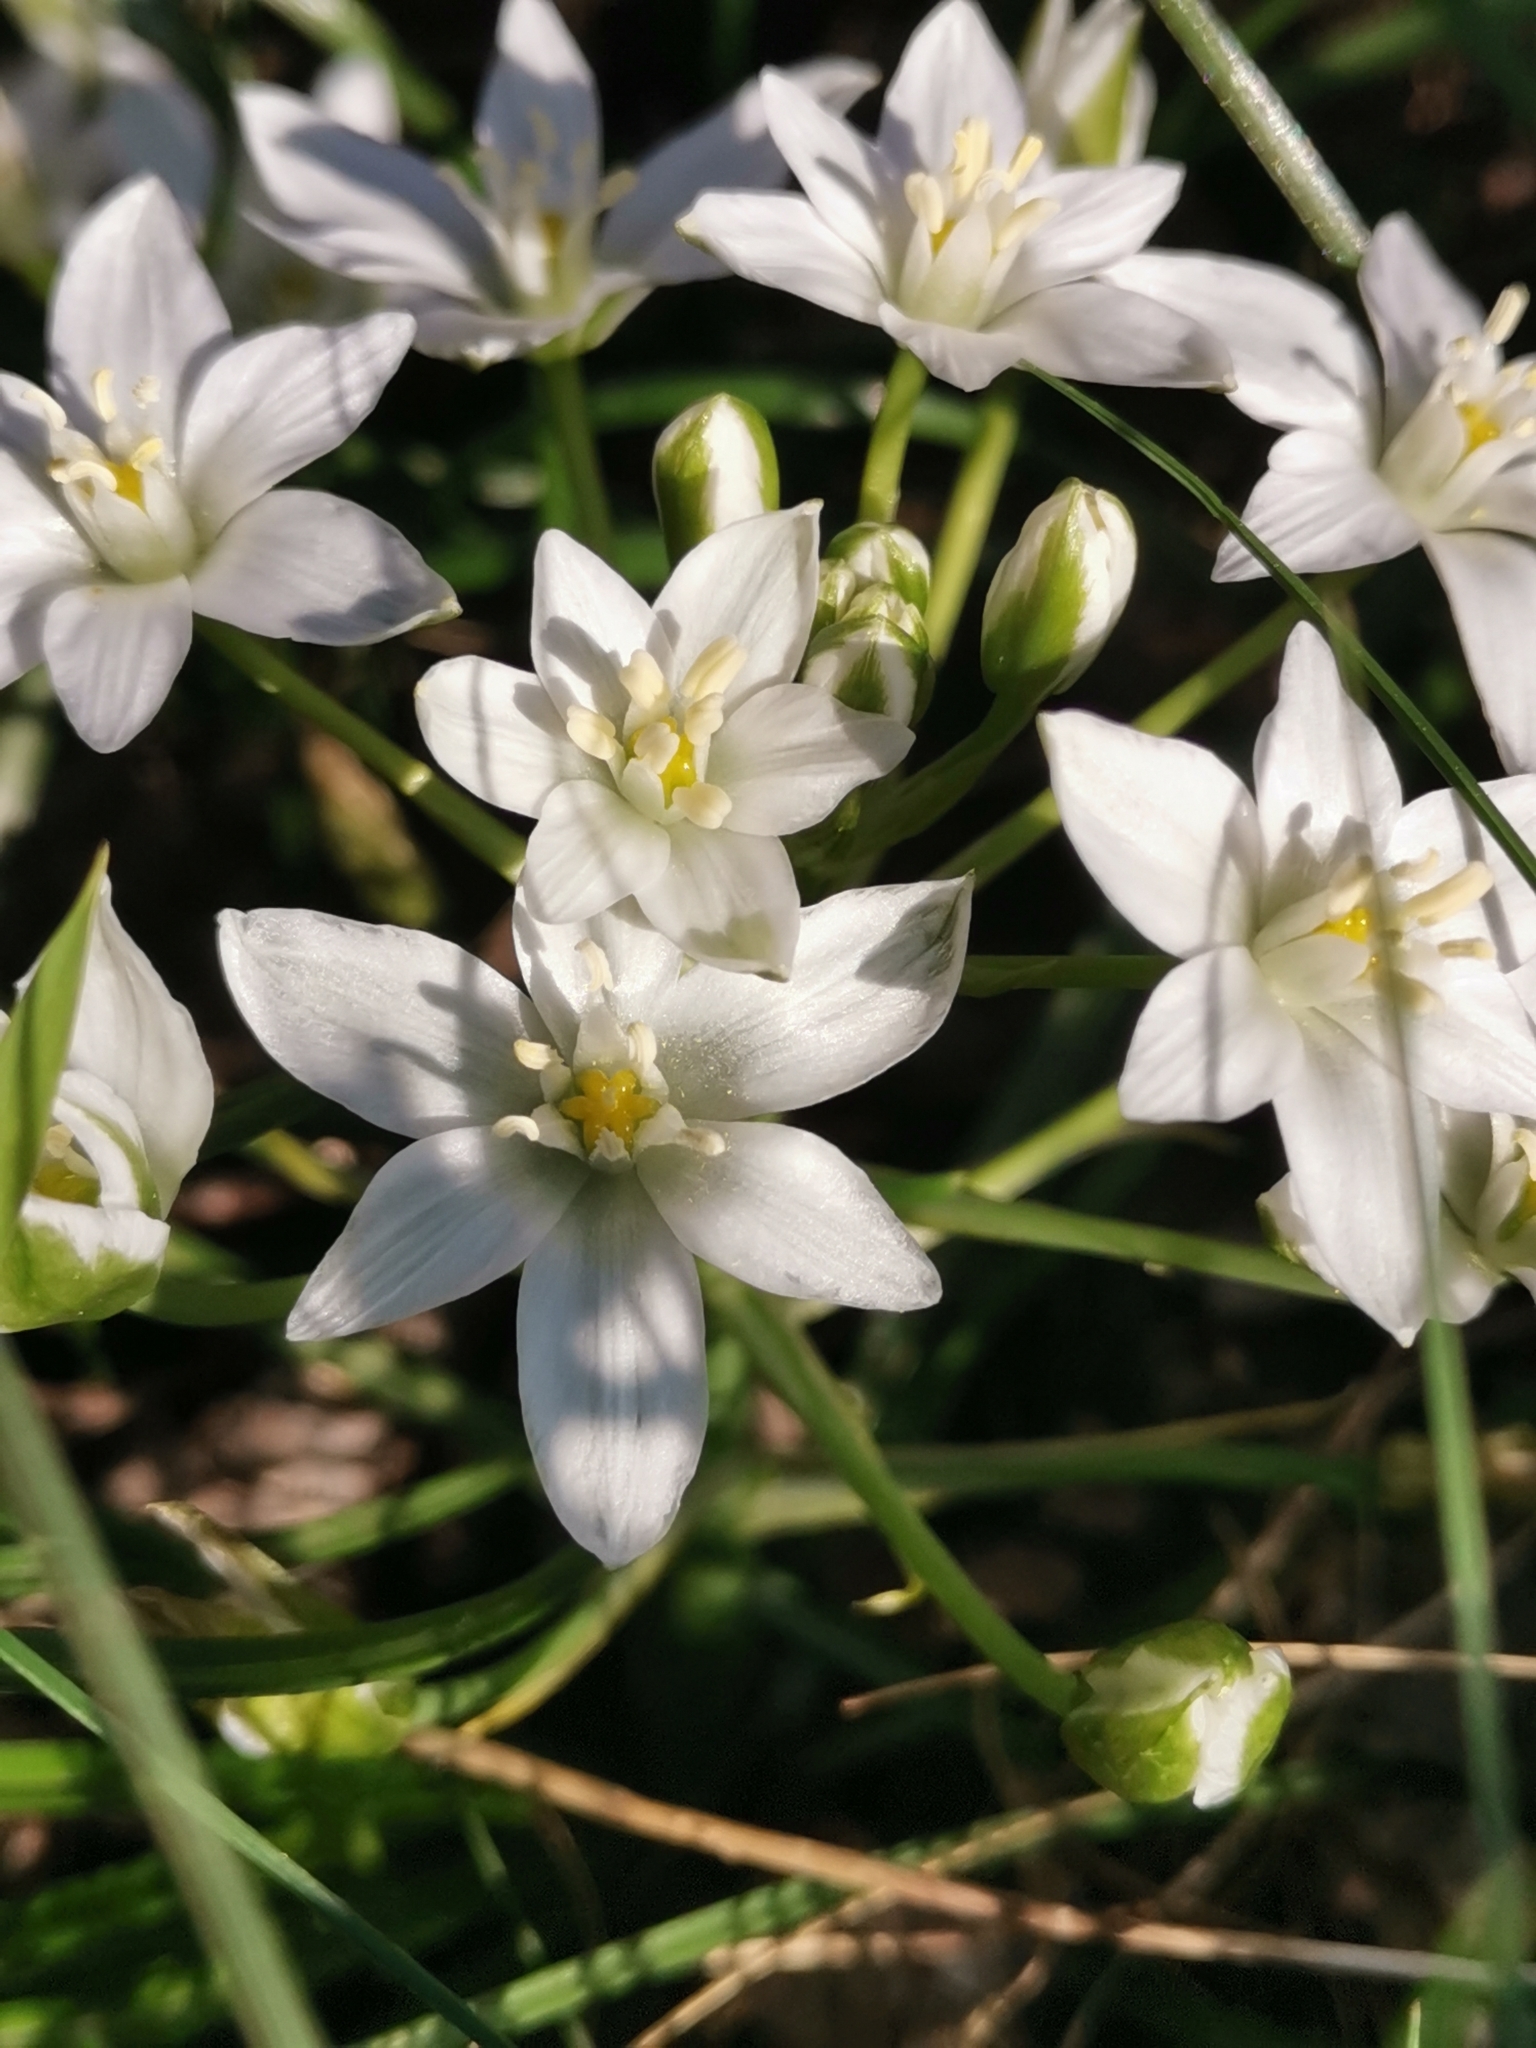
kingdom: Plantae
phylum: Tracheophyta
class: Liliopsida
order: Asparagales
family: Asparagaceae
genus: Ornithogalum
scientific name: Ornithogalum orthophyllum
